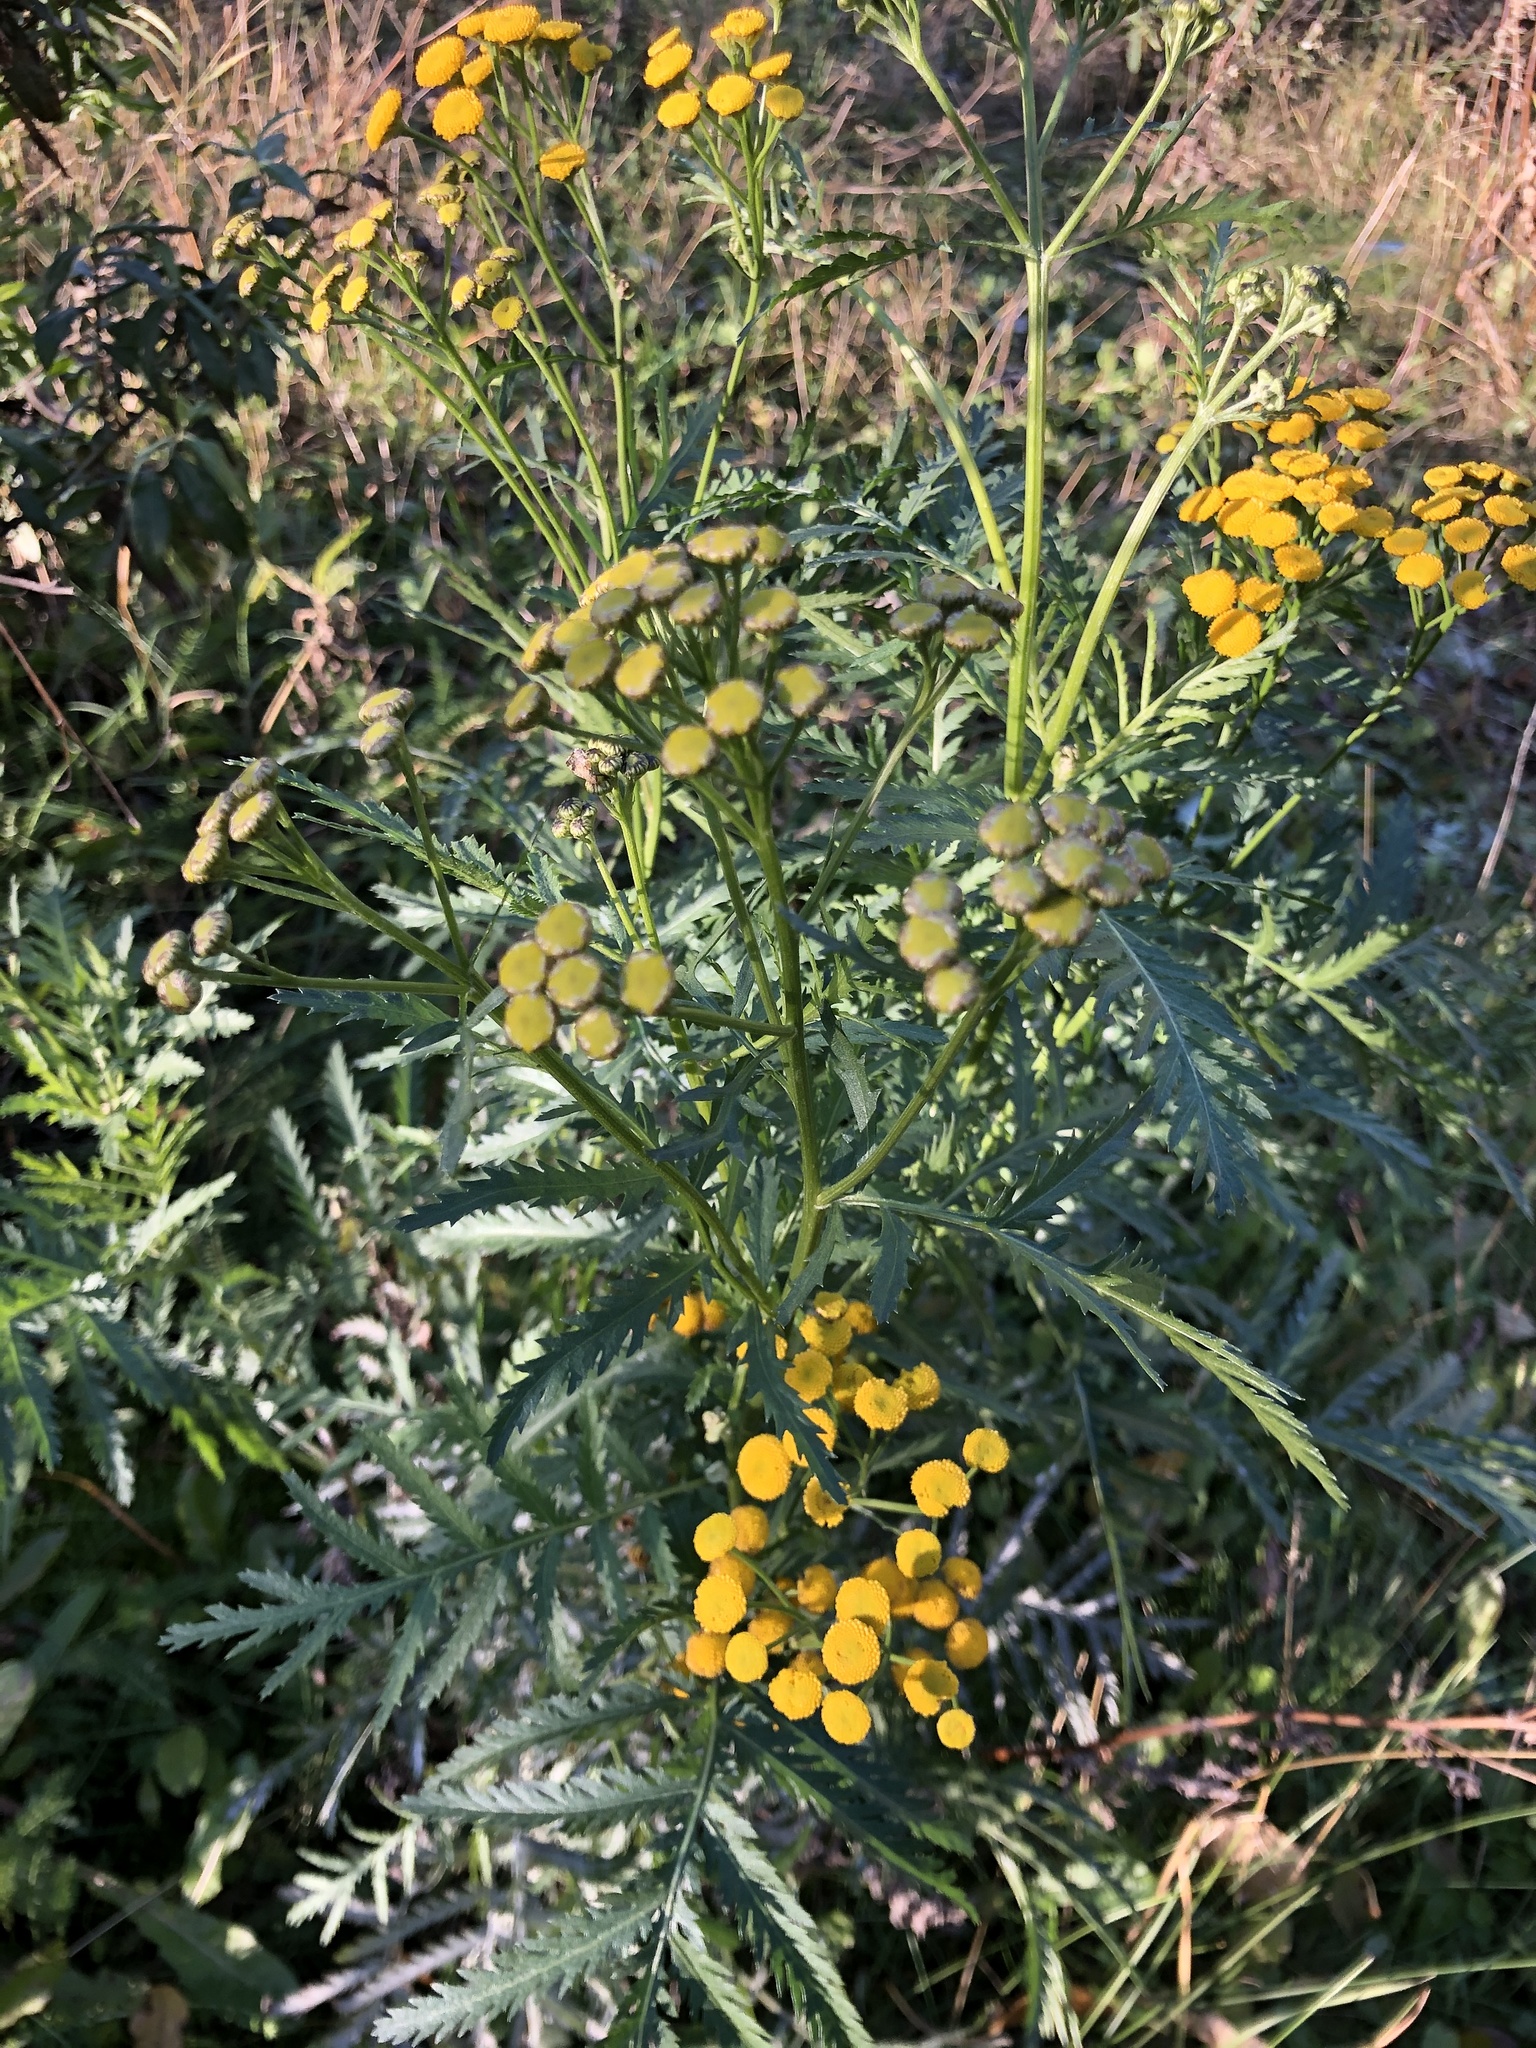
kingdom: Plantae
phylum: Tracheophyta
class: Magnoliopsida
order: Asterales
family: Asteraceae
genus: Tanacetum
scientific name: Tanacetum vulgare
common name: Common tansy
